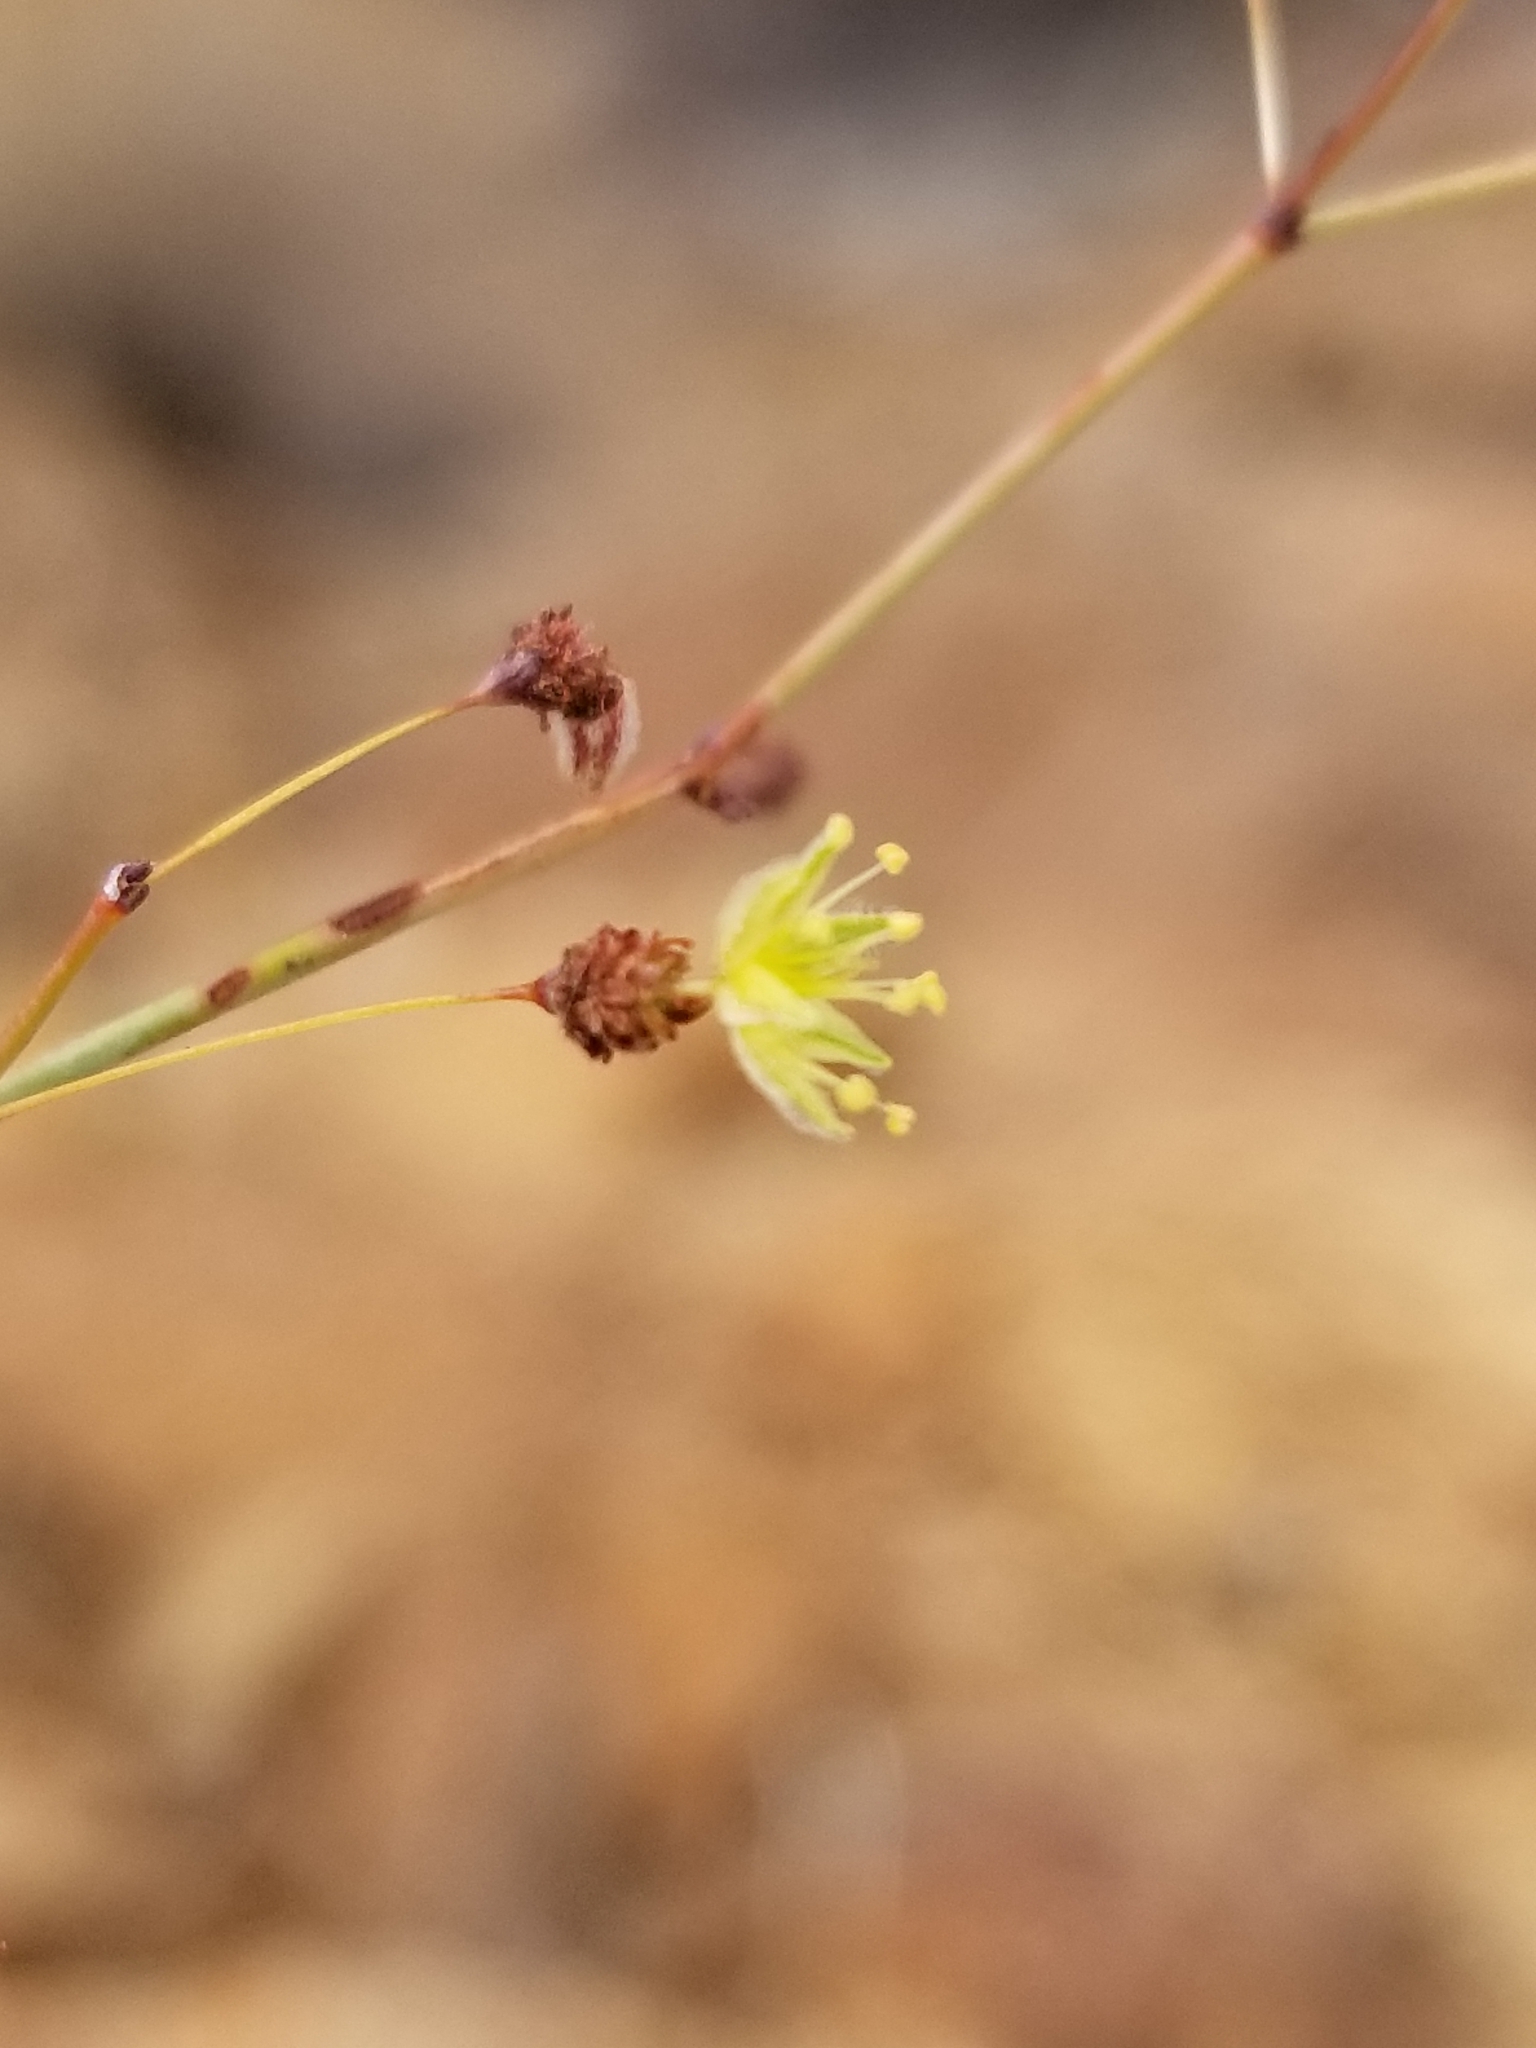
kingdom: Plantae
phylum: Tracheophyta
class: Magnoliopsida
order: Caryophyllales
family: Polygonaceae
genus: Eriogonum
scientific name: Eriogonum inflatum
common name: Desert trumpet
